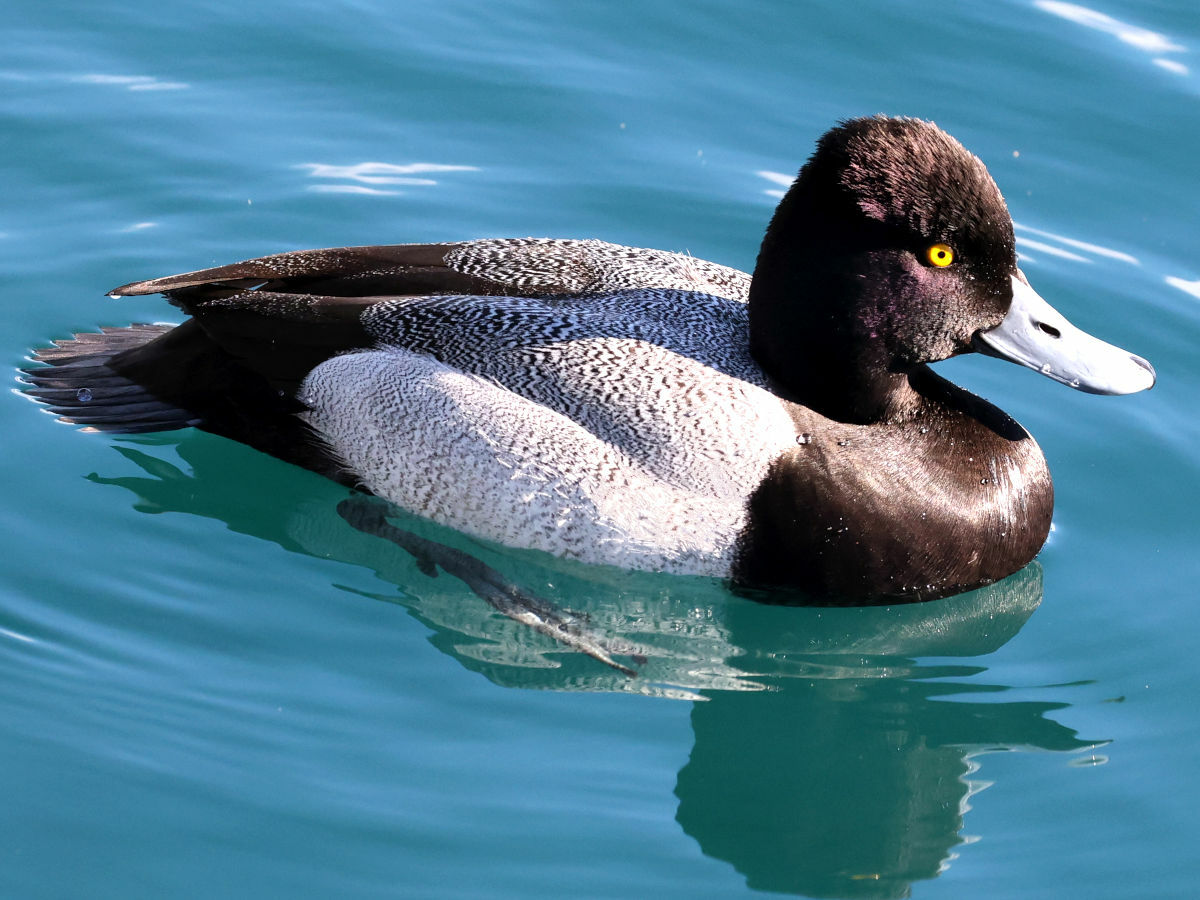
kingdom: Animalia
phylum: Chordata
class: Aves
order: Anseriformes
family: Anatidae
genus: Aythya
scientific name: Aythya affinis
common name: Lesser scaup
